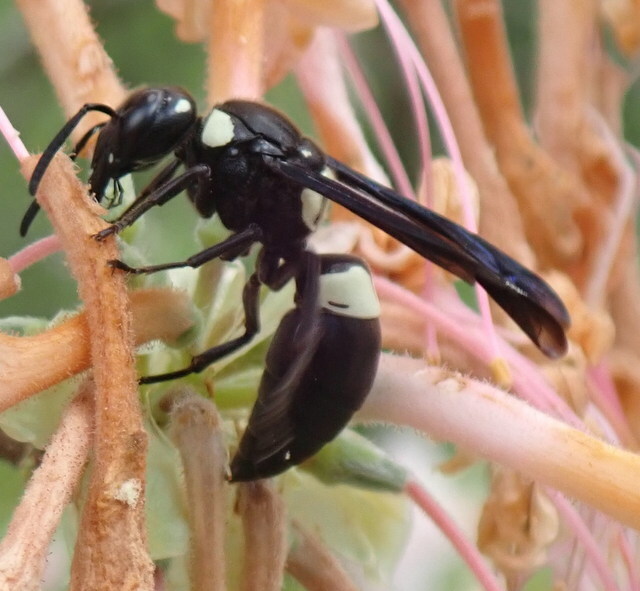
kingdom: Animalia
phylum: Arthropoda
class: Insecta
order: Hymenoptera
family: Eumenidae
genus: Euodynerus
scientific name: Euodynerus bidens
